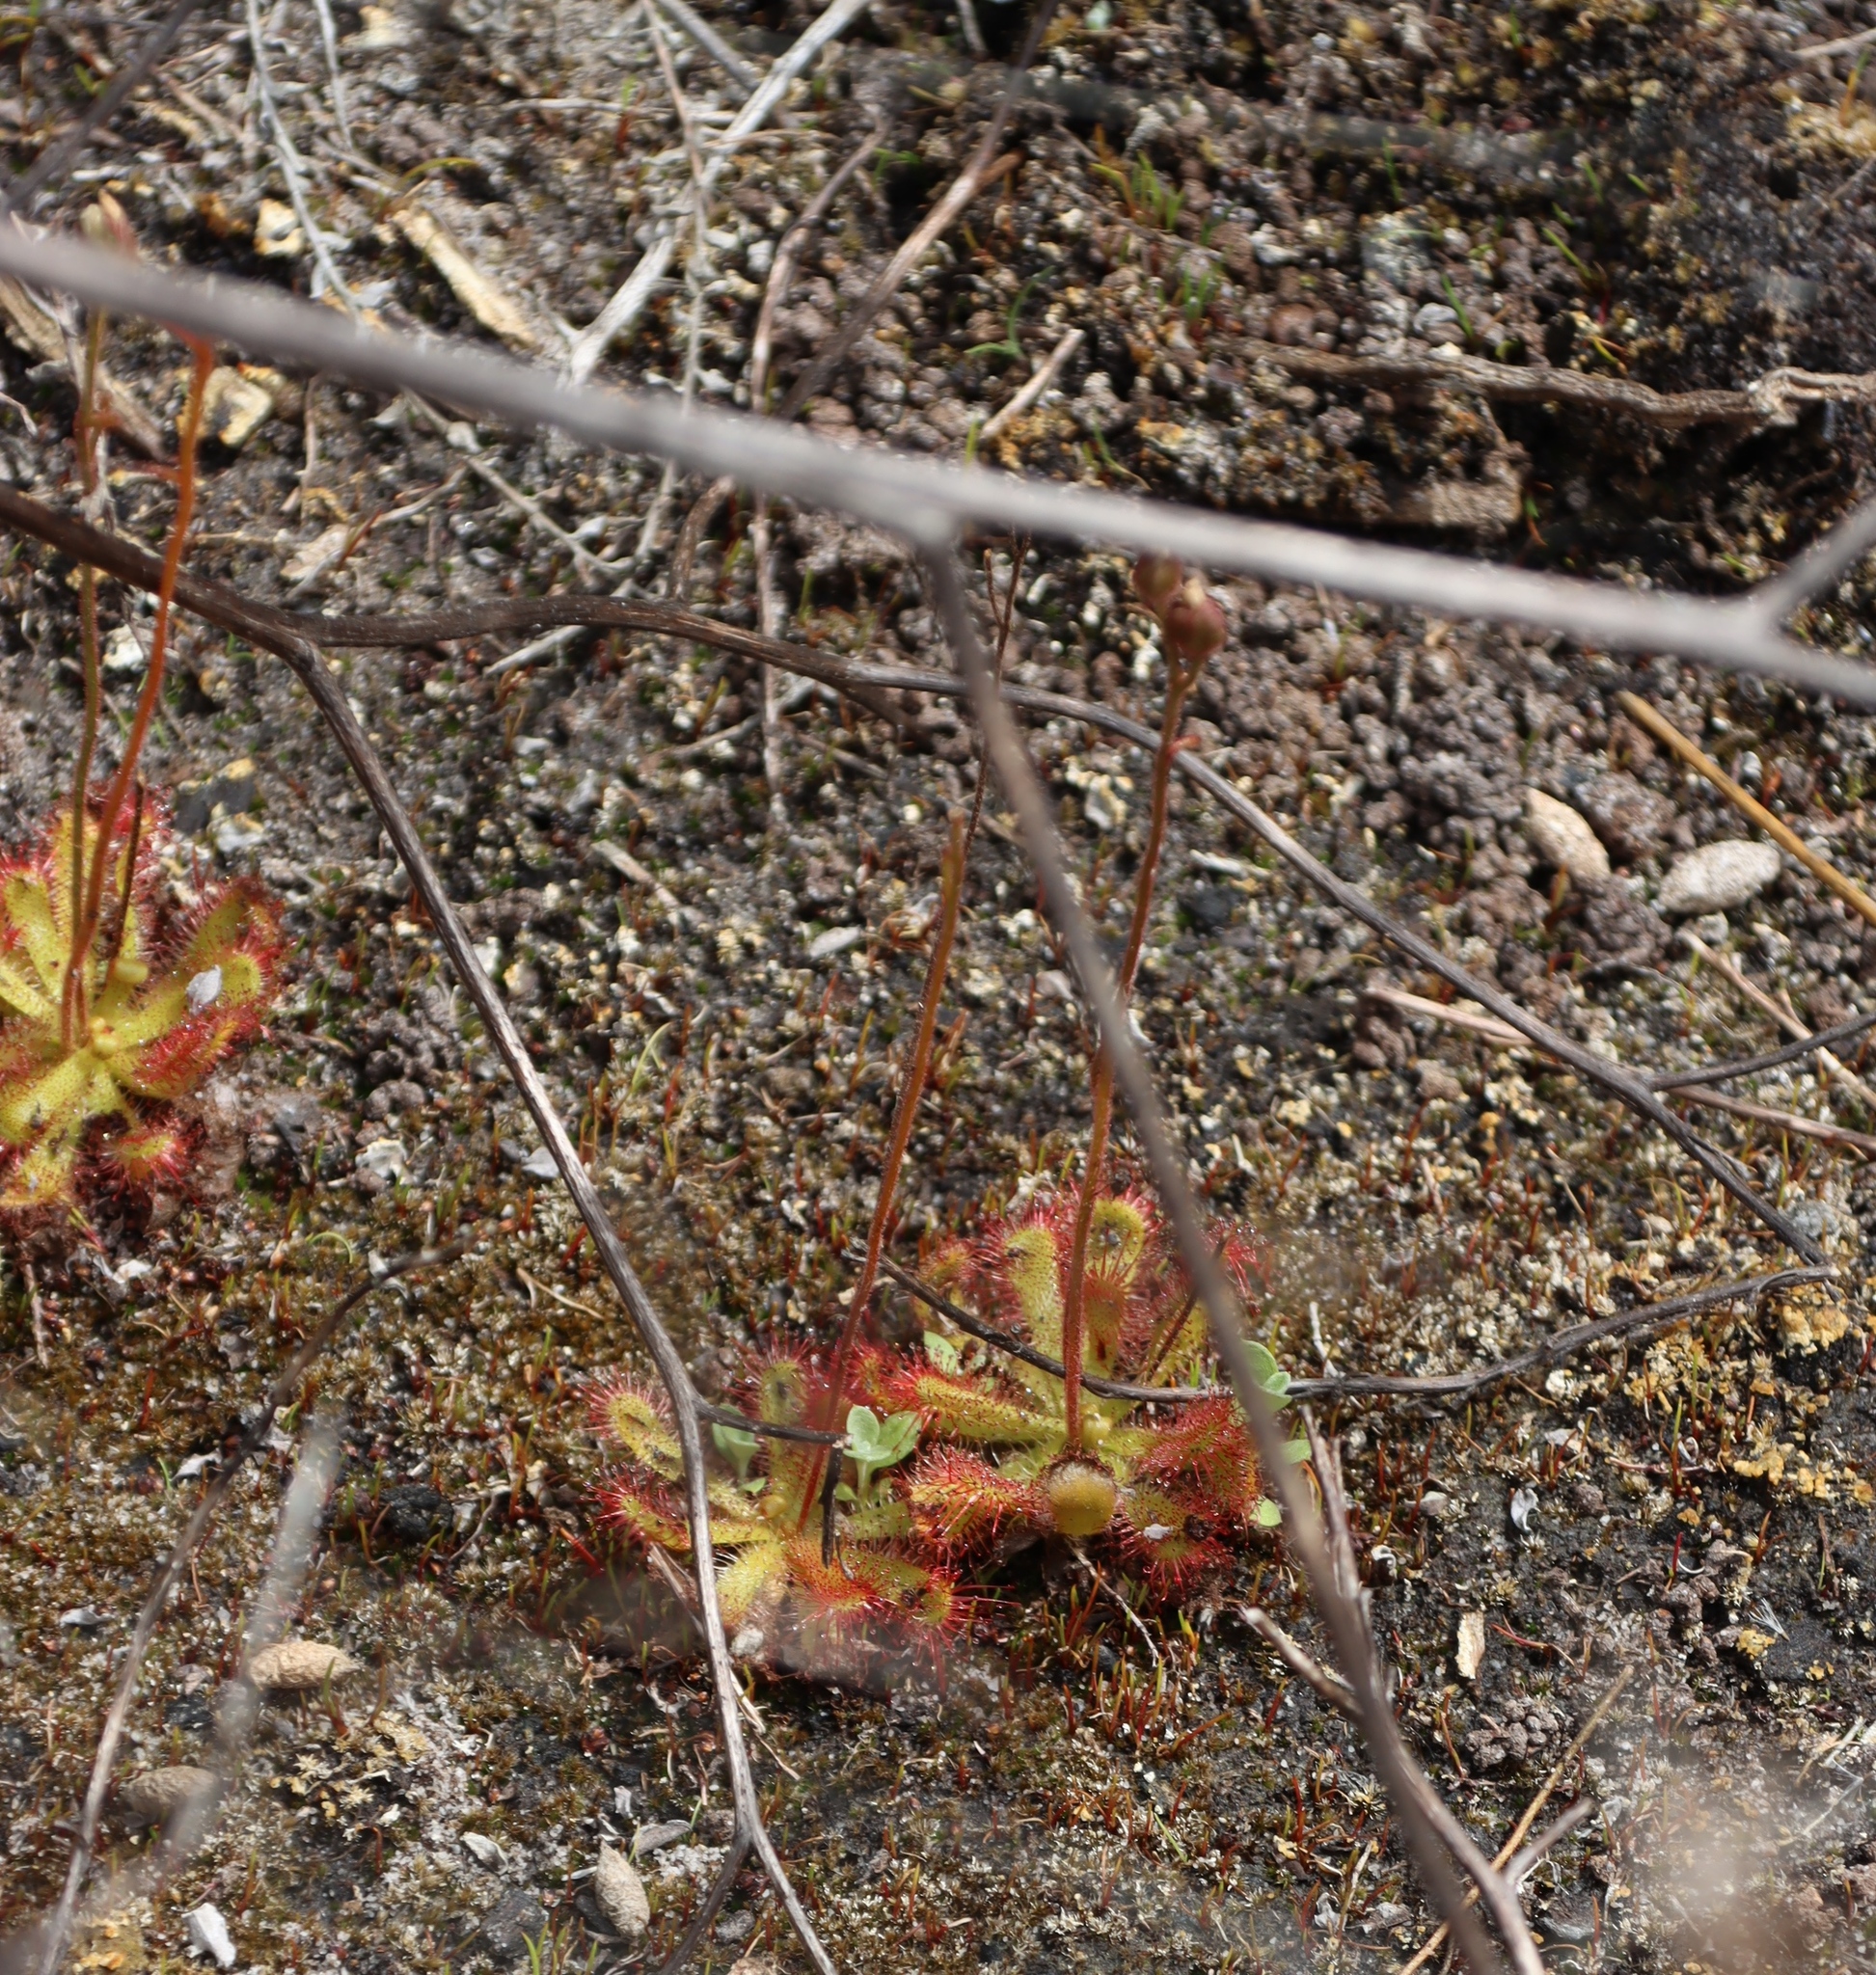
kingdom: Plantae
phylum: Tracheophyta
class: Magnoliopsida
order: Caryophyllales
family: Droseraceae
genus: Drosera
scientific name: Drosera trinervia
